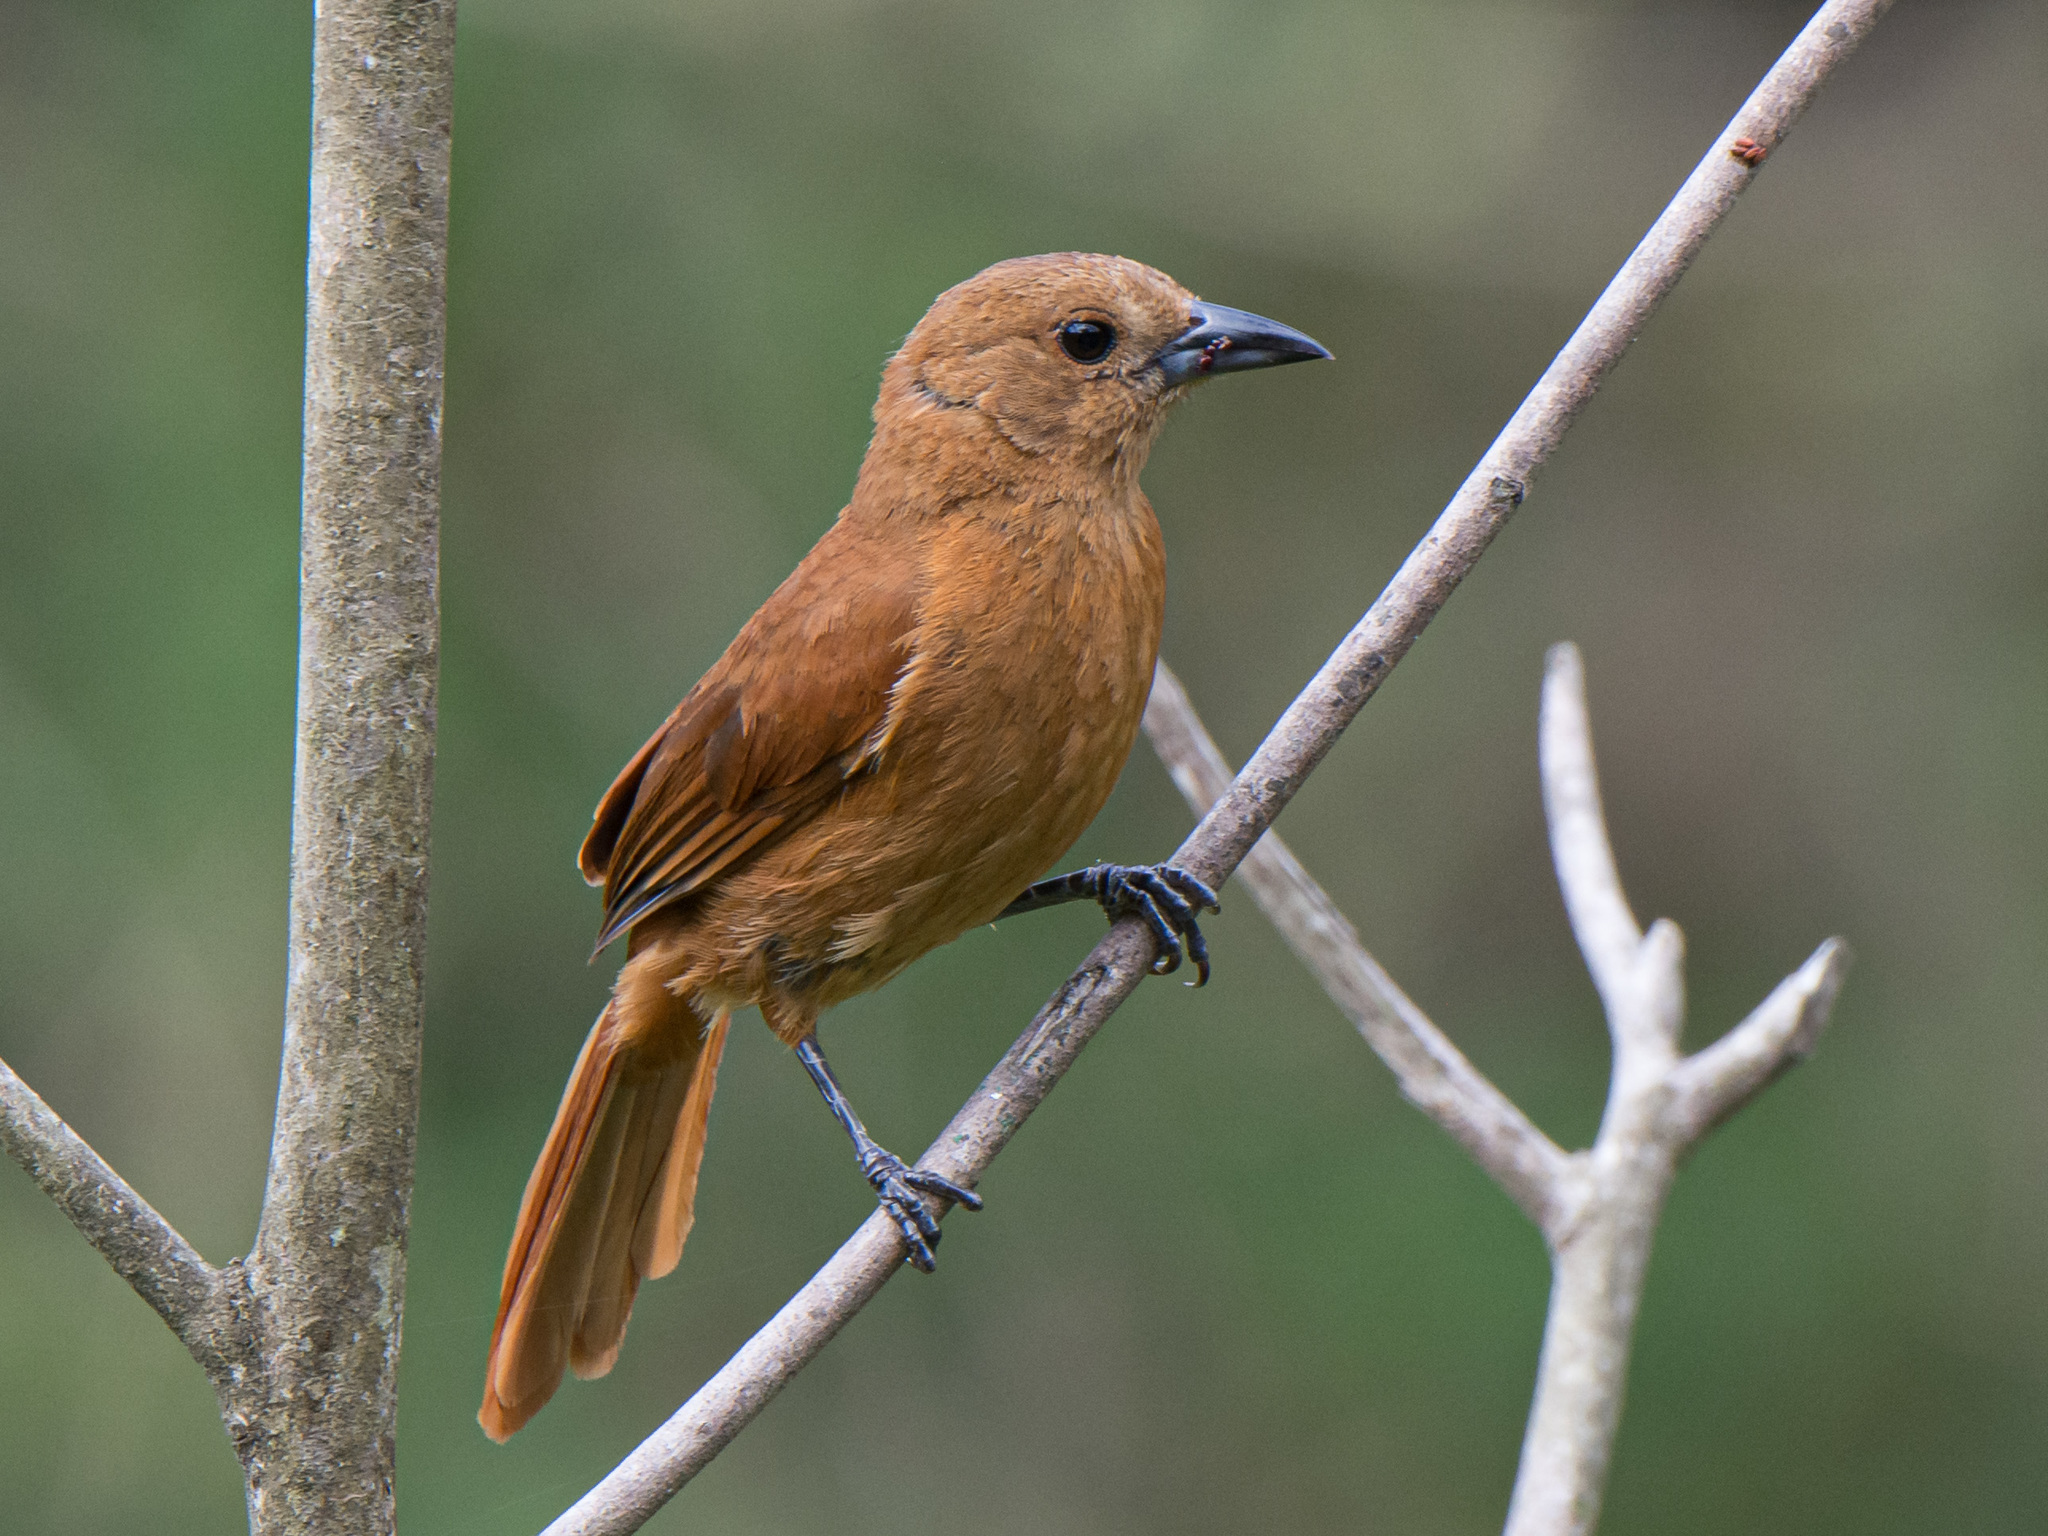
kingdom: Animalia
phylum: Chordata
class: Aves
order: Passeriformes
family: Thraupidae
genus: Tachyphonus
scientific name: Tachyphonus rufus
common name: White-lined tanager
